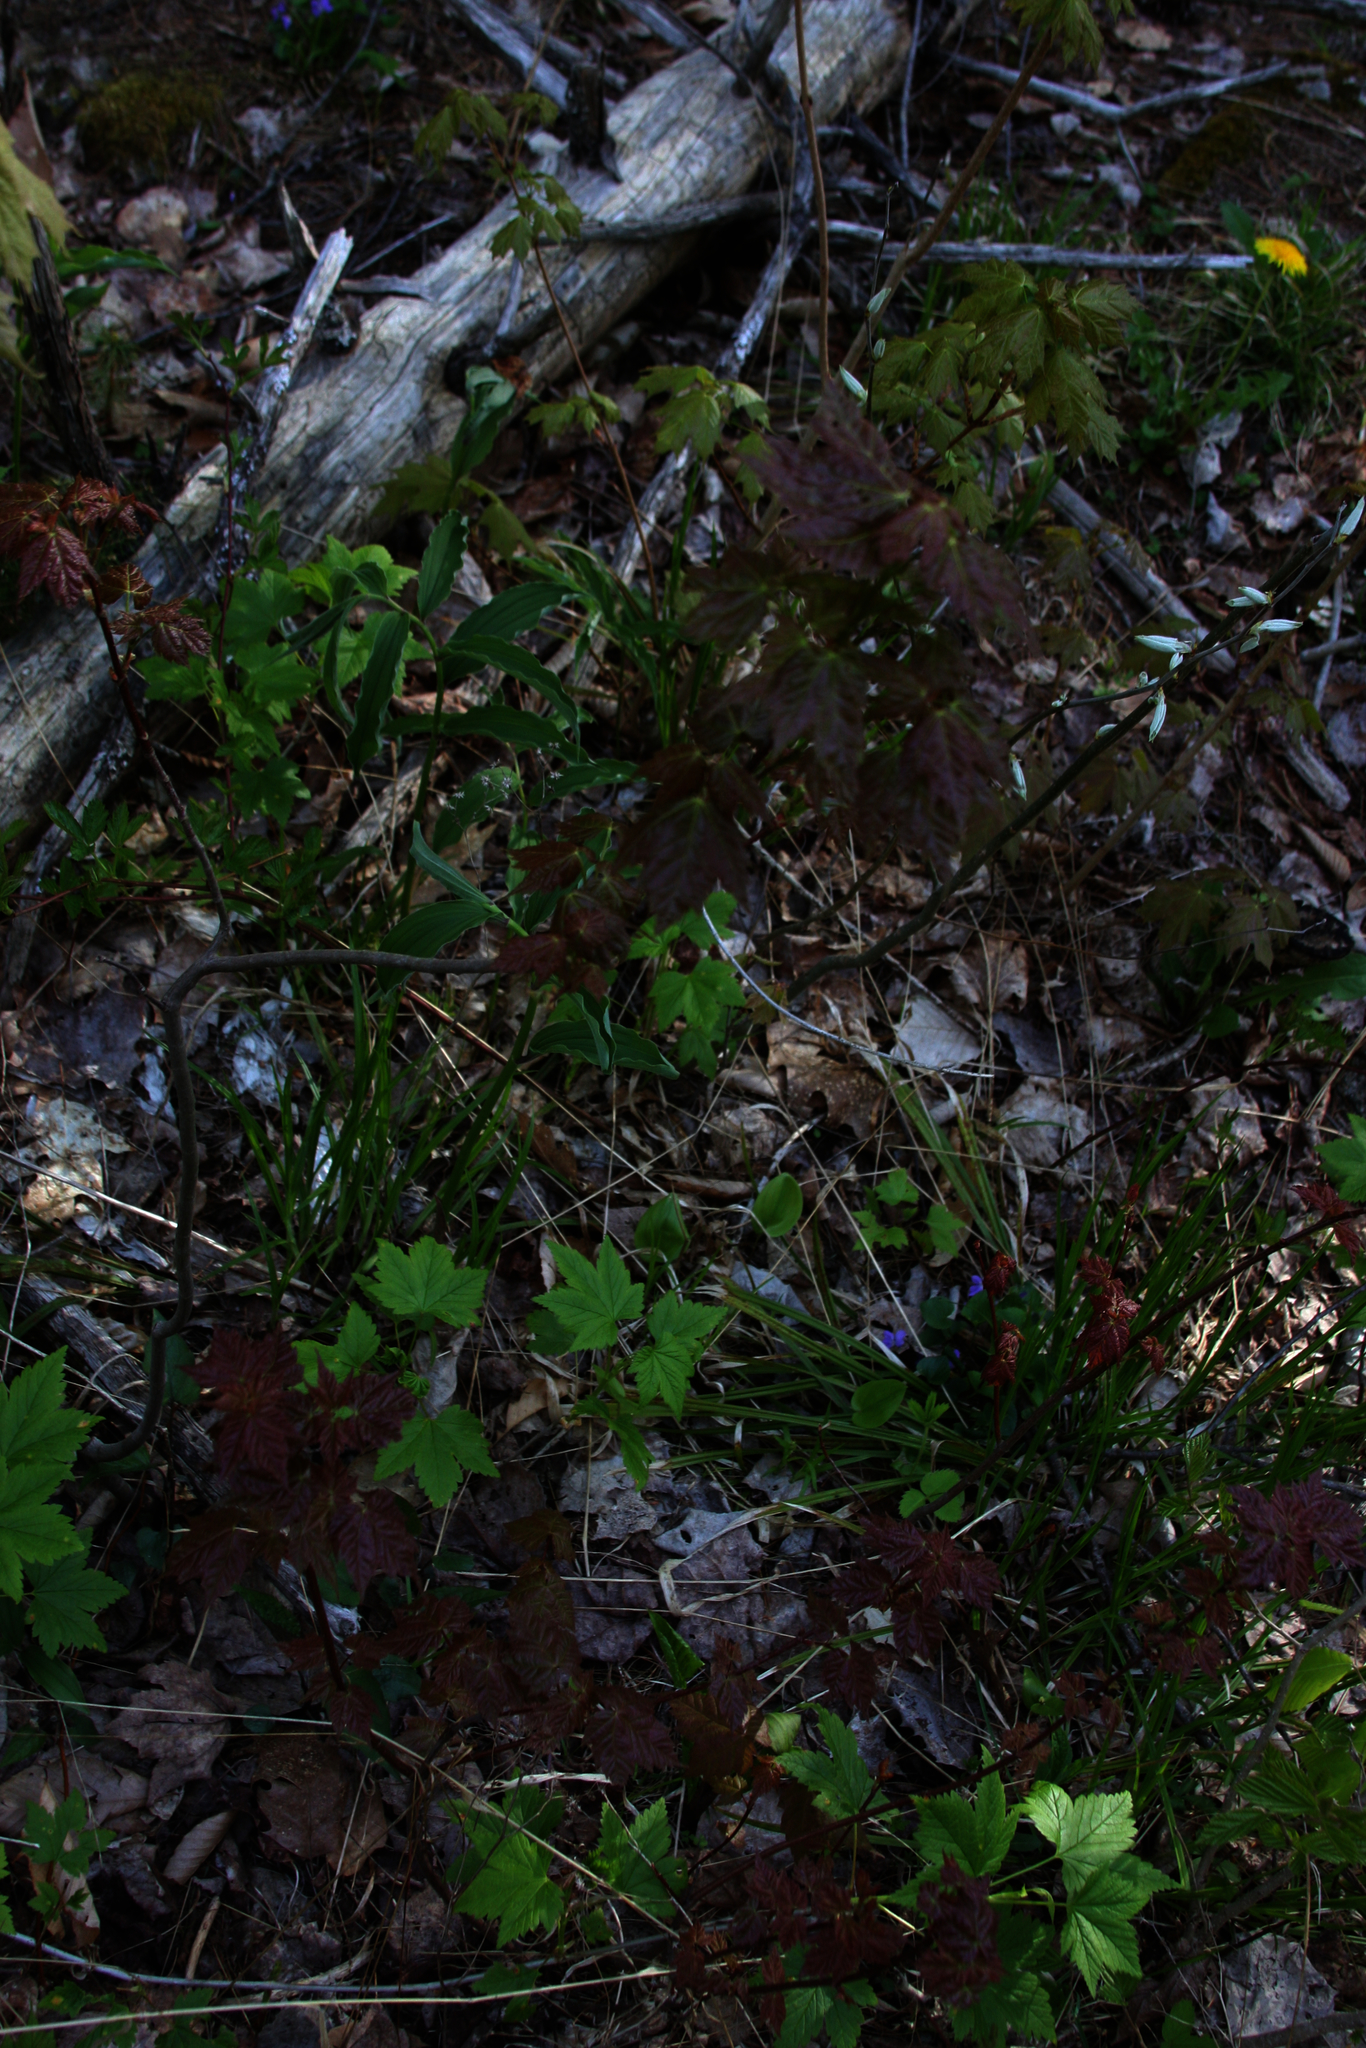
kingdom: Plantae
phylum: Tracheophyta
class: Magnoliopsida
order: Sapindales
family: Sapindaceae
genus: Acer
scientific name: Acer rubrum
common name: Red maple
